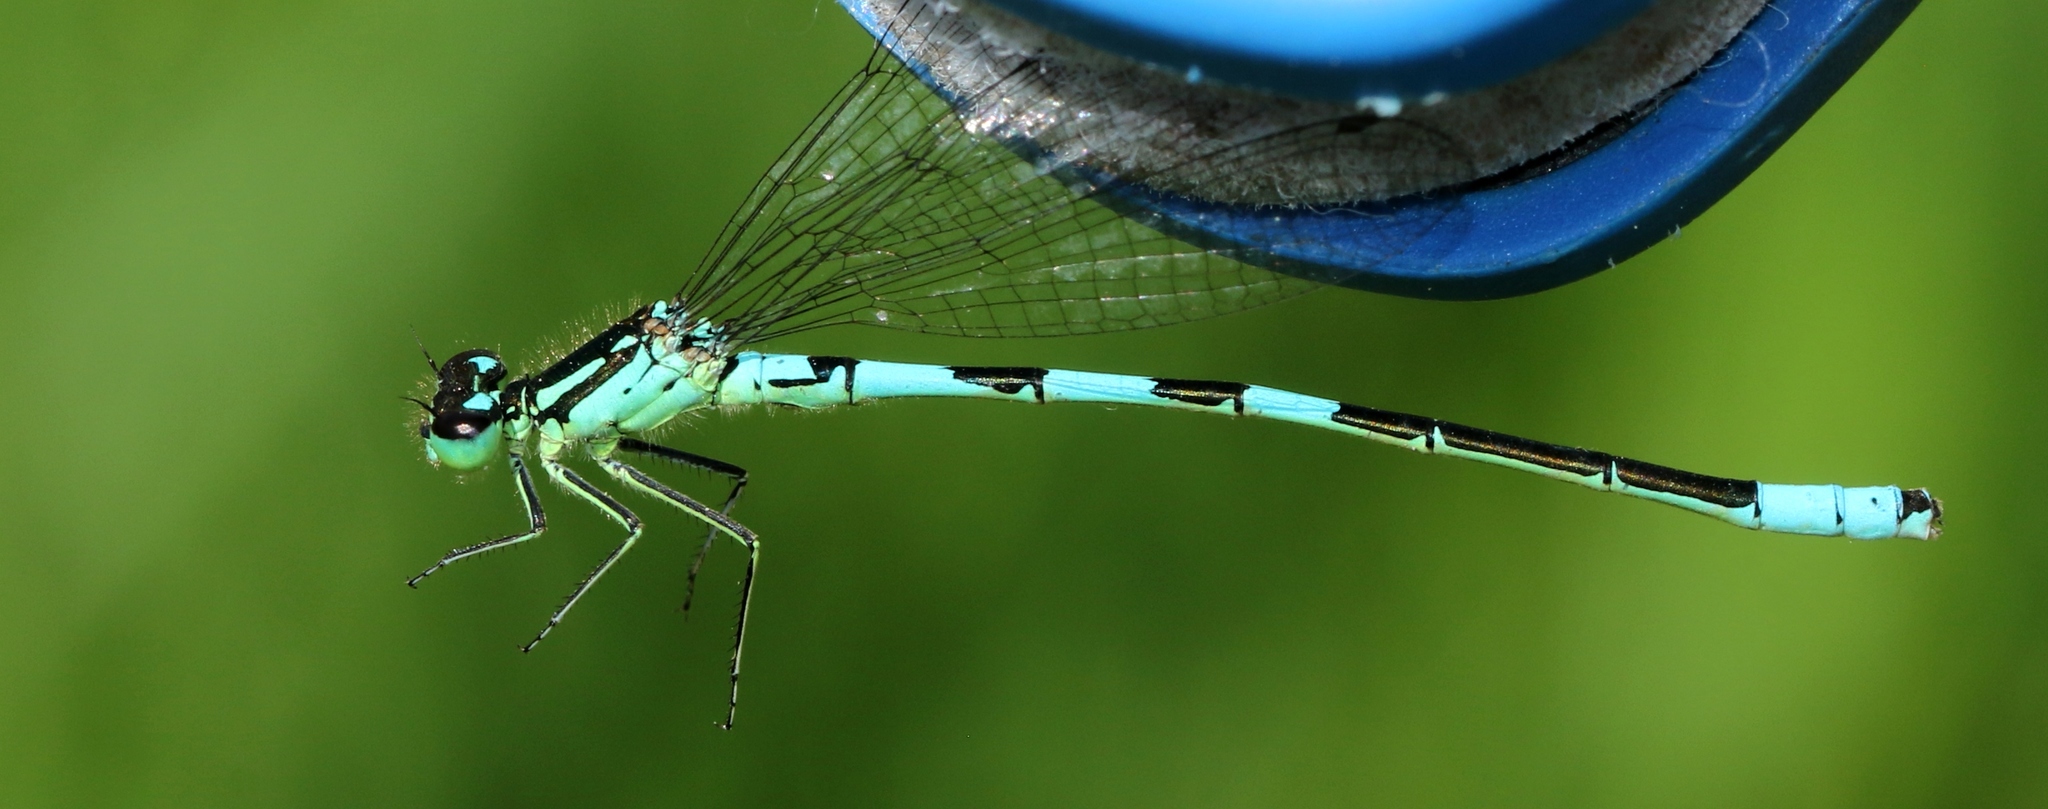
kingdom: Animalia
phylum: Arthropoda
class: Insecta
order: Odonata
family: Coenagrionidae
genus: Coenagrion
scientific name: Coenagrion resolutum
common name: Taiga bluet
